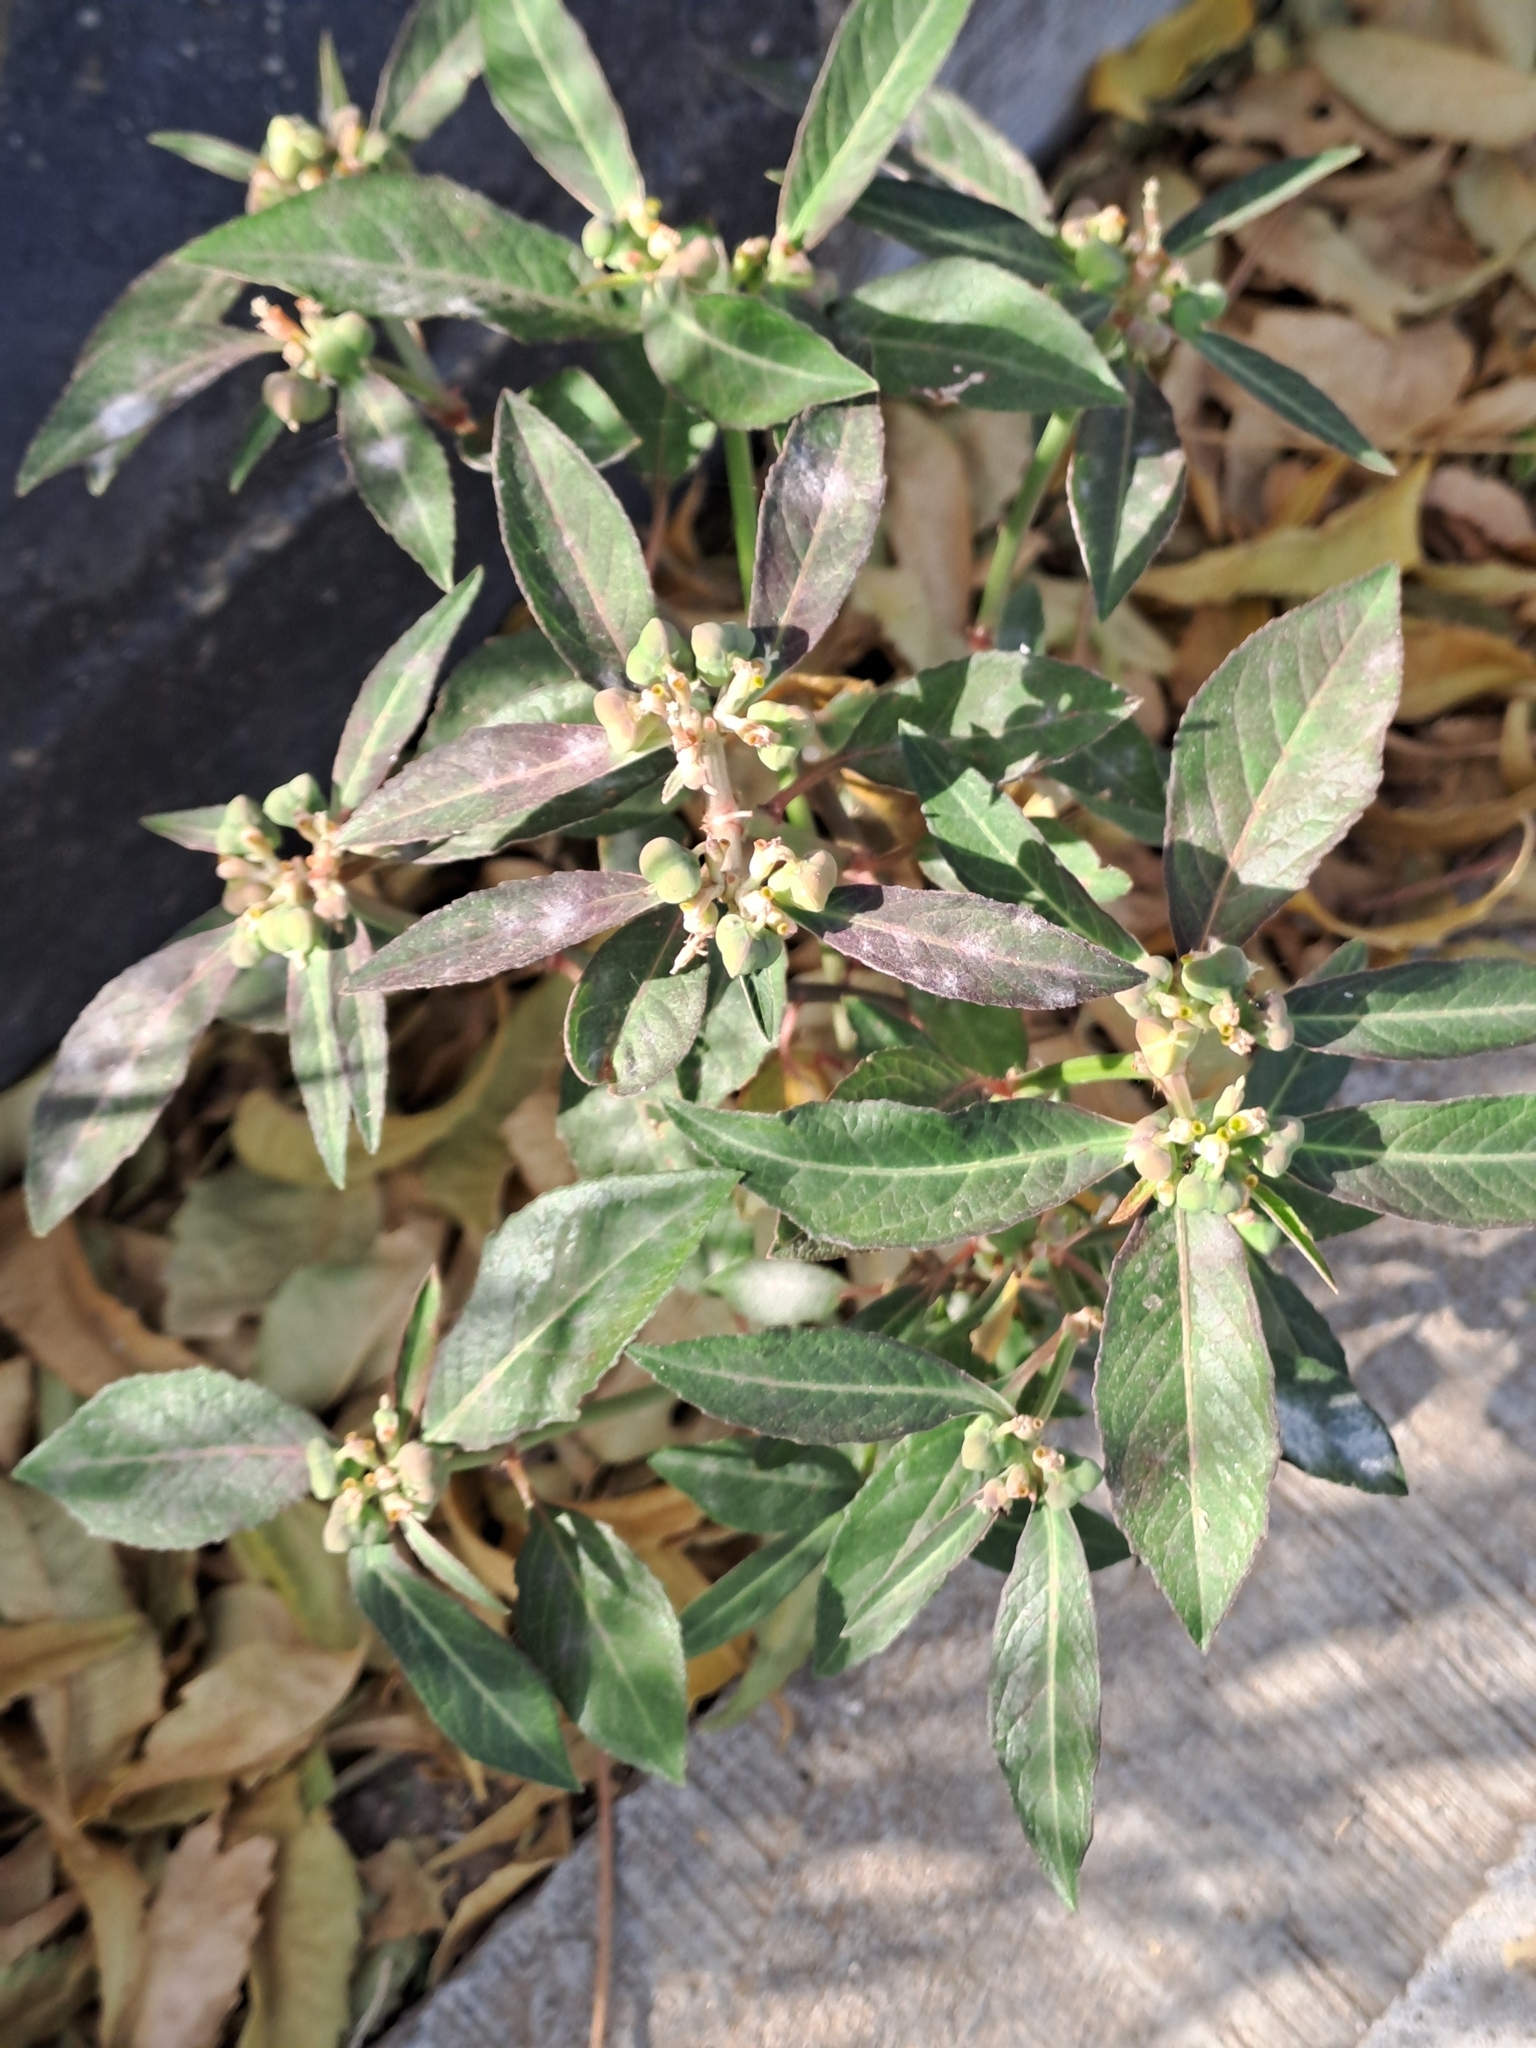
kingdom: Plantae
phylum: Tracheophyta
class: Magnoliopsida
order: Malpighiales
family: Euphorbiaceae
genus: Euphorbia
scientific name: Euphorbia heterophylla
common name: Mexican fireplant
